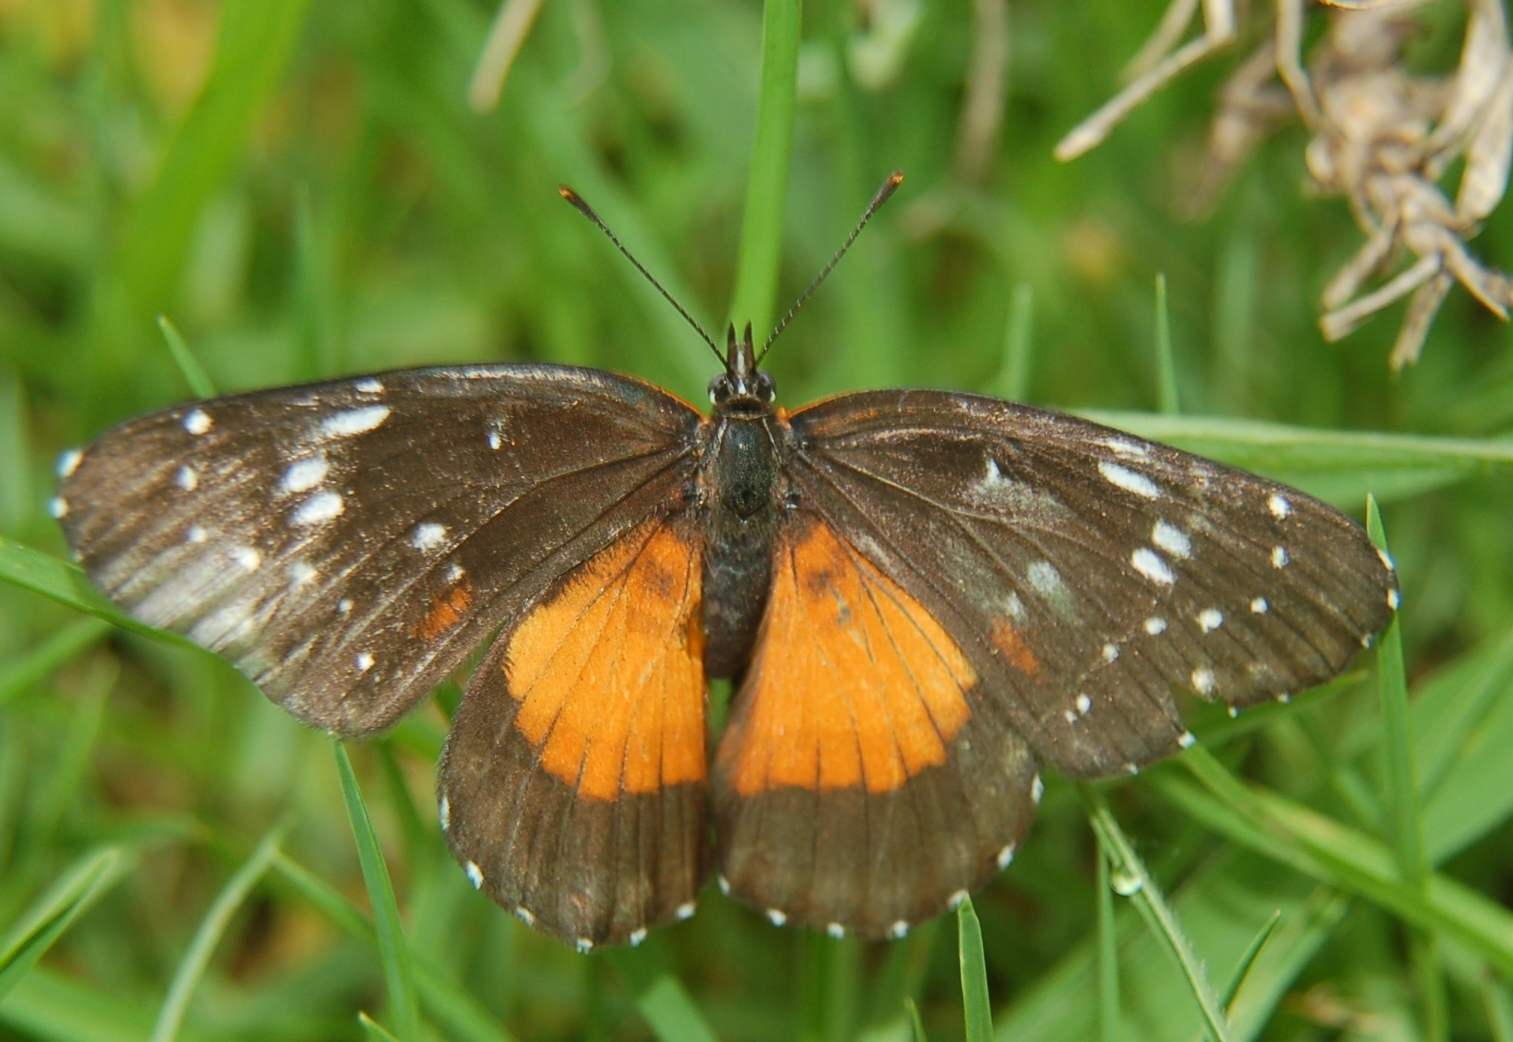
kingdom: Animalia
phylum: Arthropoda
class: Insecta
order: Lepidoptera
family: Nymphalidae
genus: Chlosyne
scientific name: Chlosyne lacinia
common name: Bordered patch
